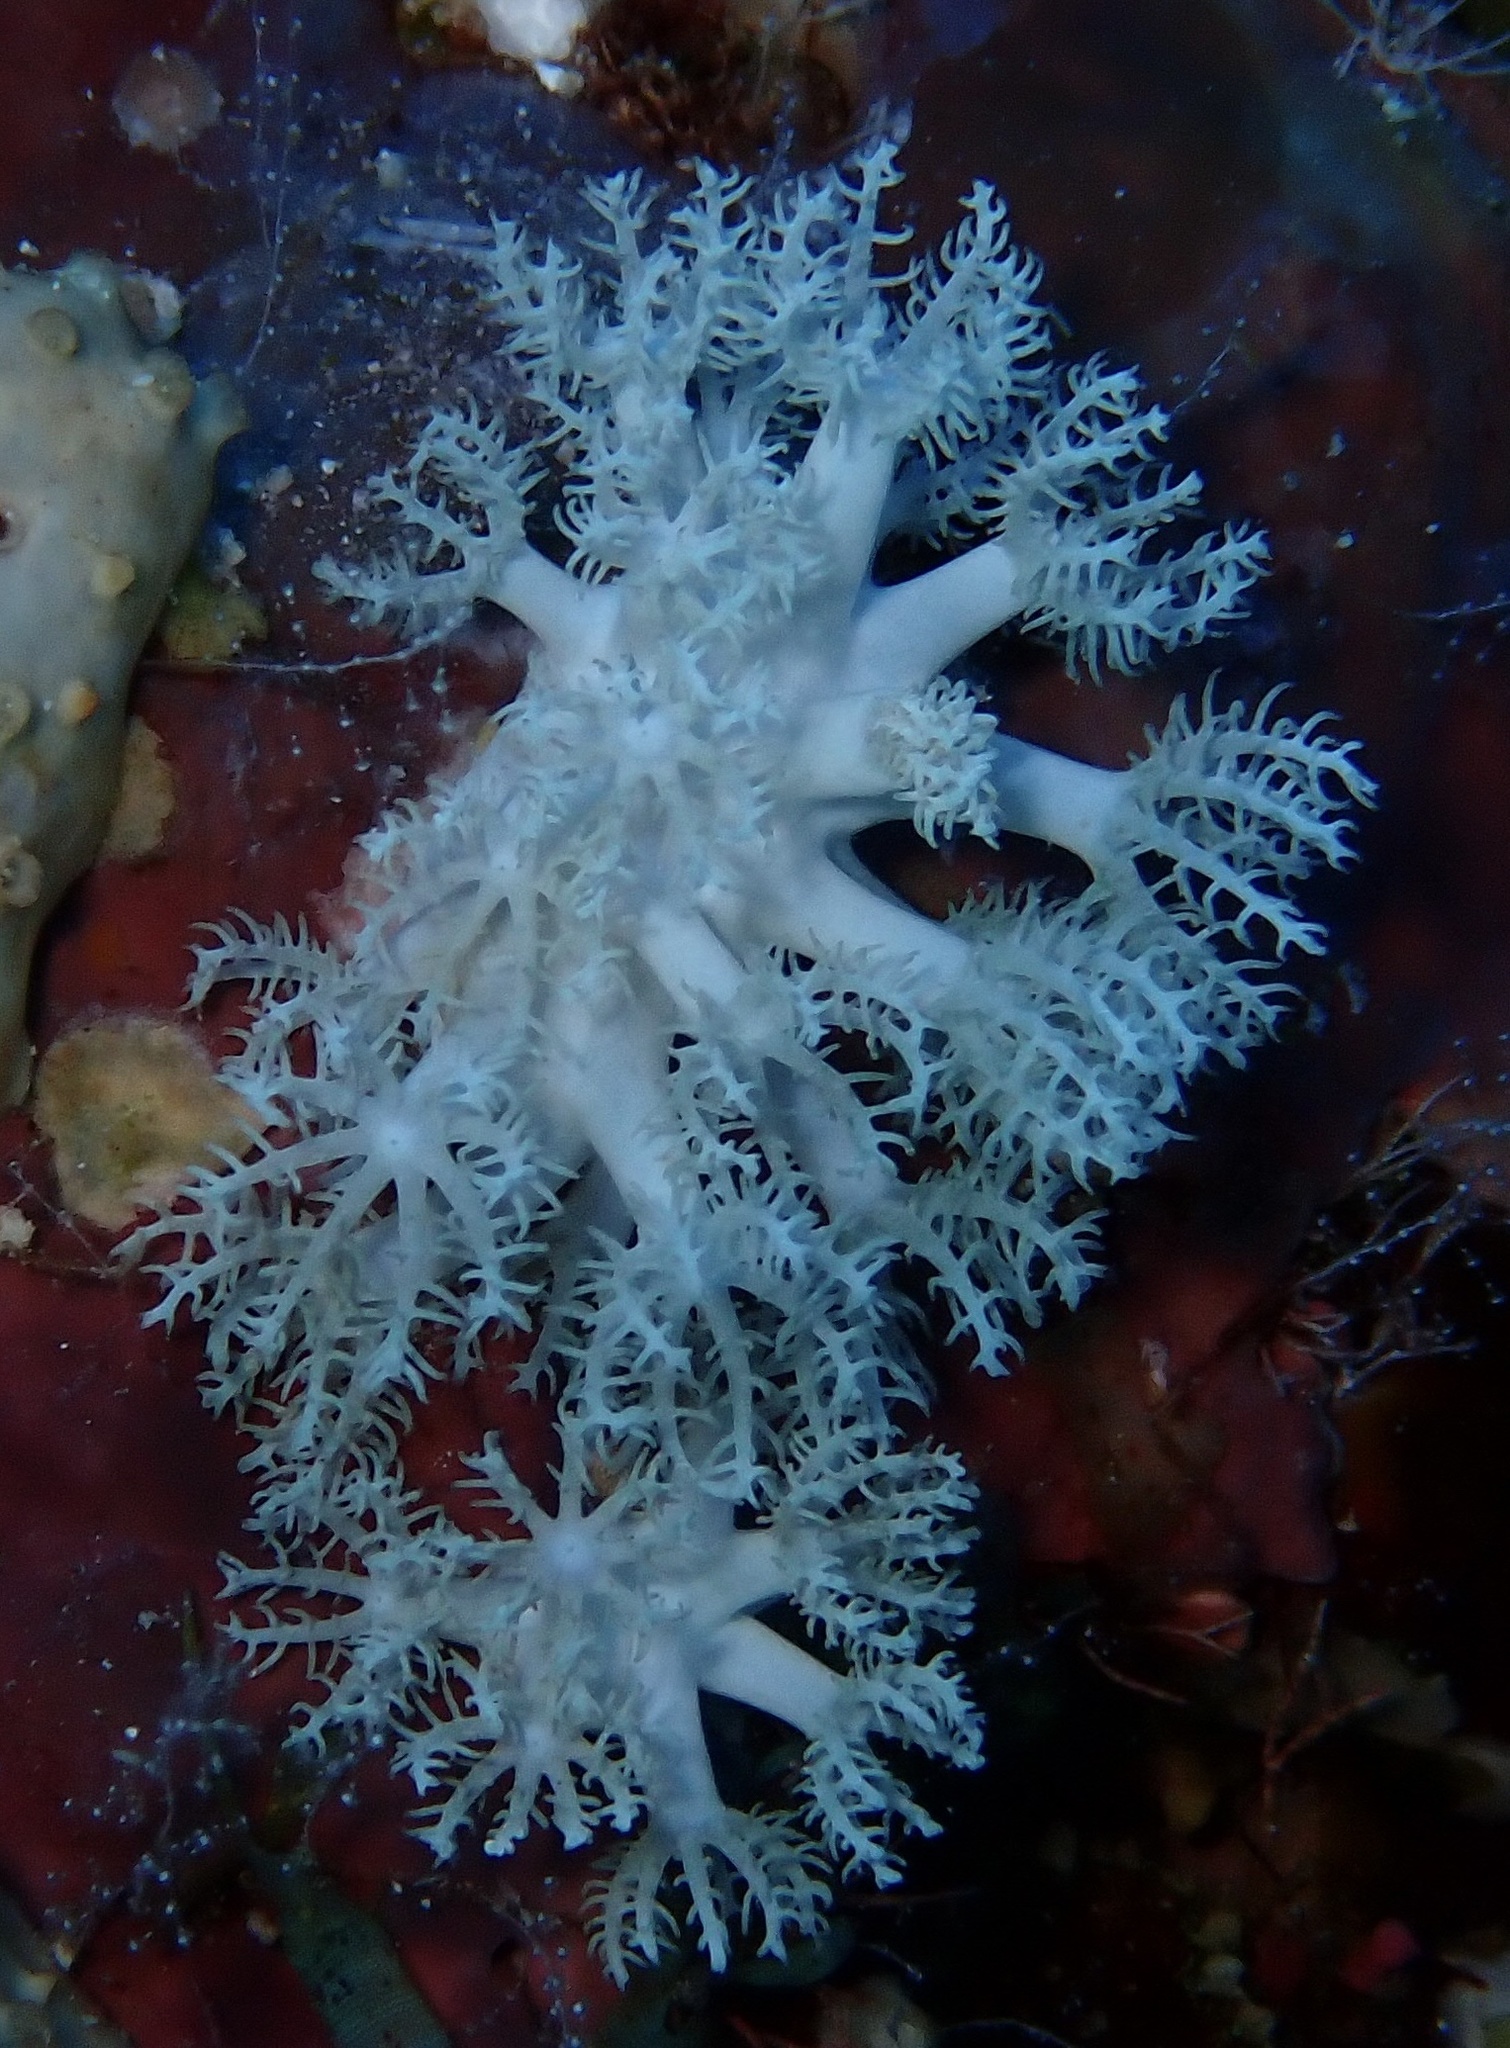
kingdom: Animalia
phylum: Cnidaria
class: Anthozoa
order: Malacalcyonacea
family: Xeniidae
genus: Anthelia
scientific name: Anthelia glauca
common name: Pulse coral
